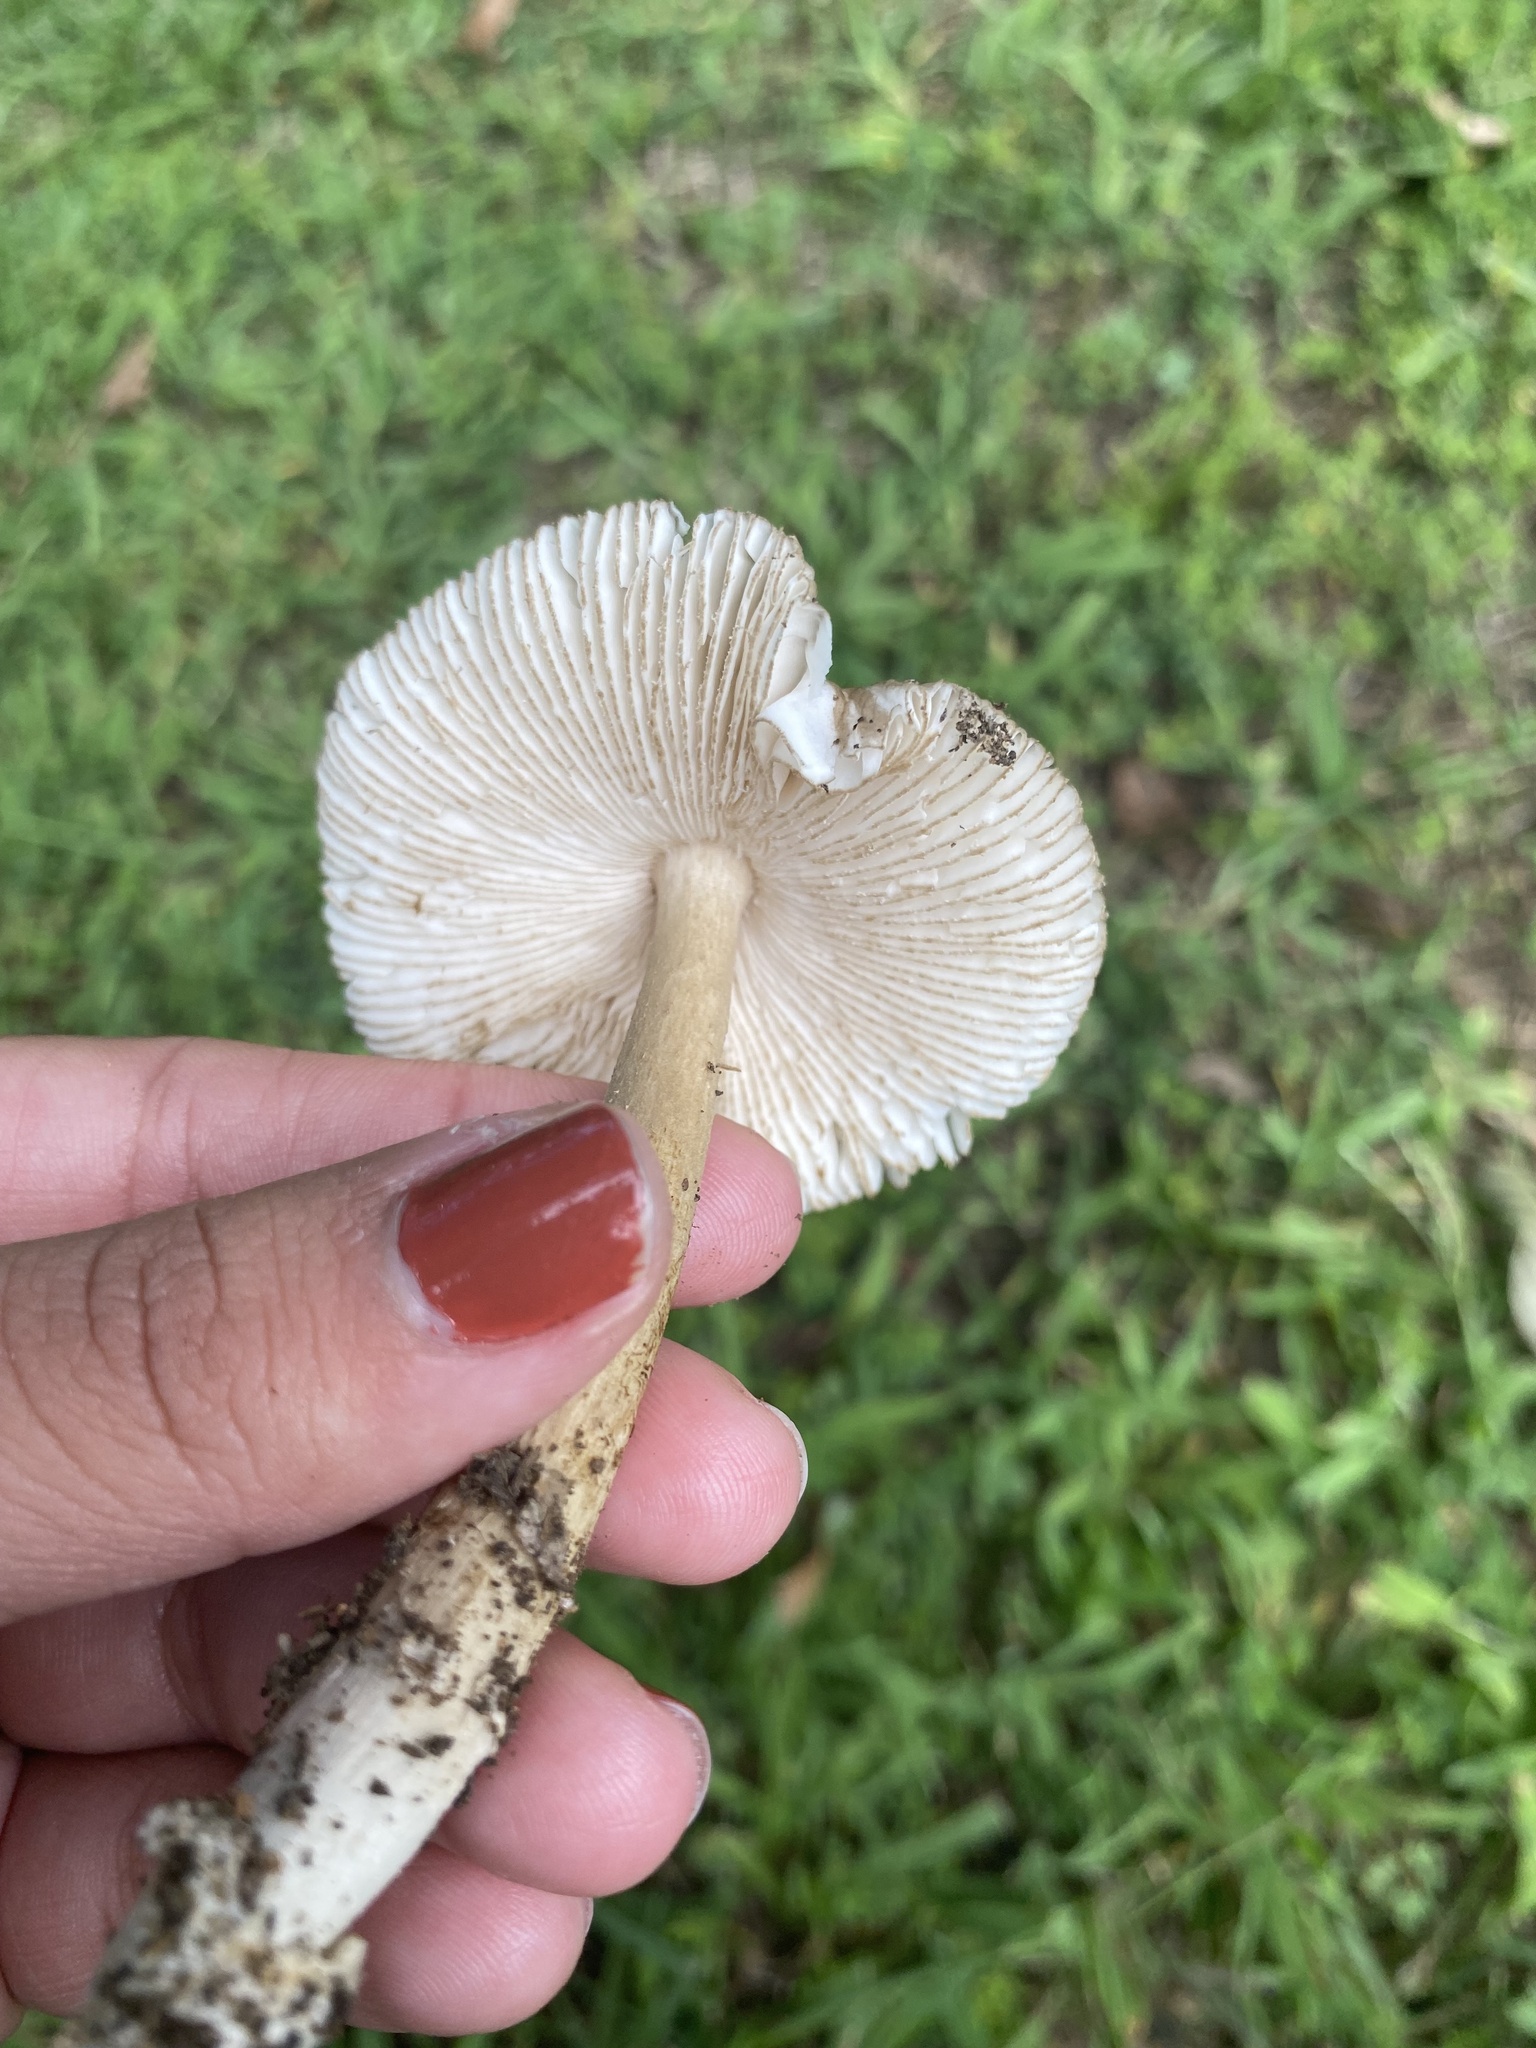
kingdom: Fungi
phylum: Basidiomycota
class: Agaricomycetes
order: Agaricales
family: Amanitaceae
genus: Amanita
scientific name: Amanita vaginata
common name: Grisette
